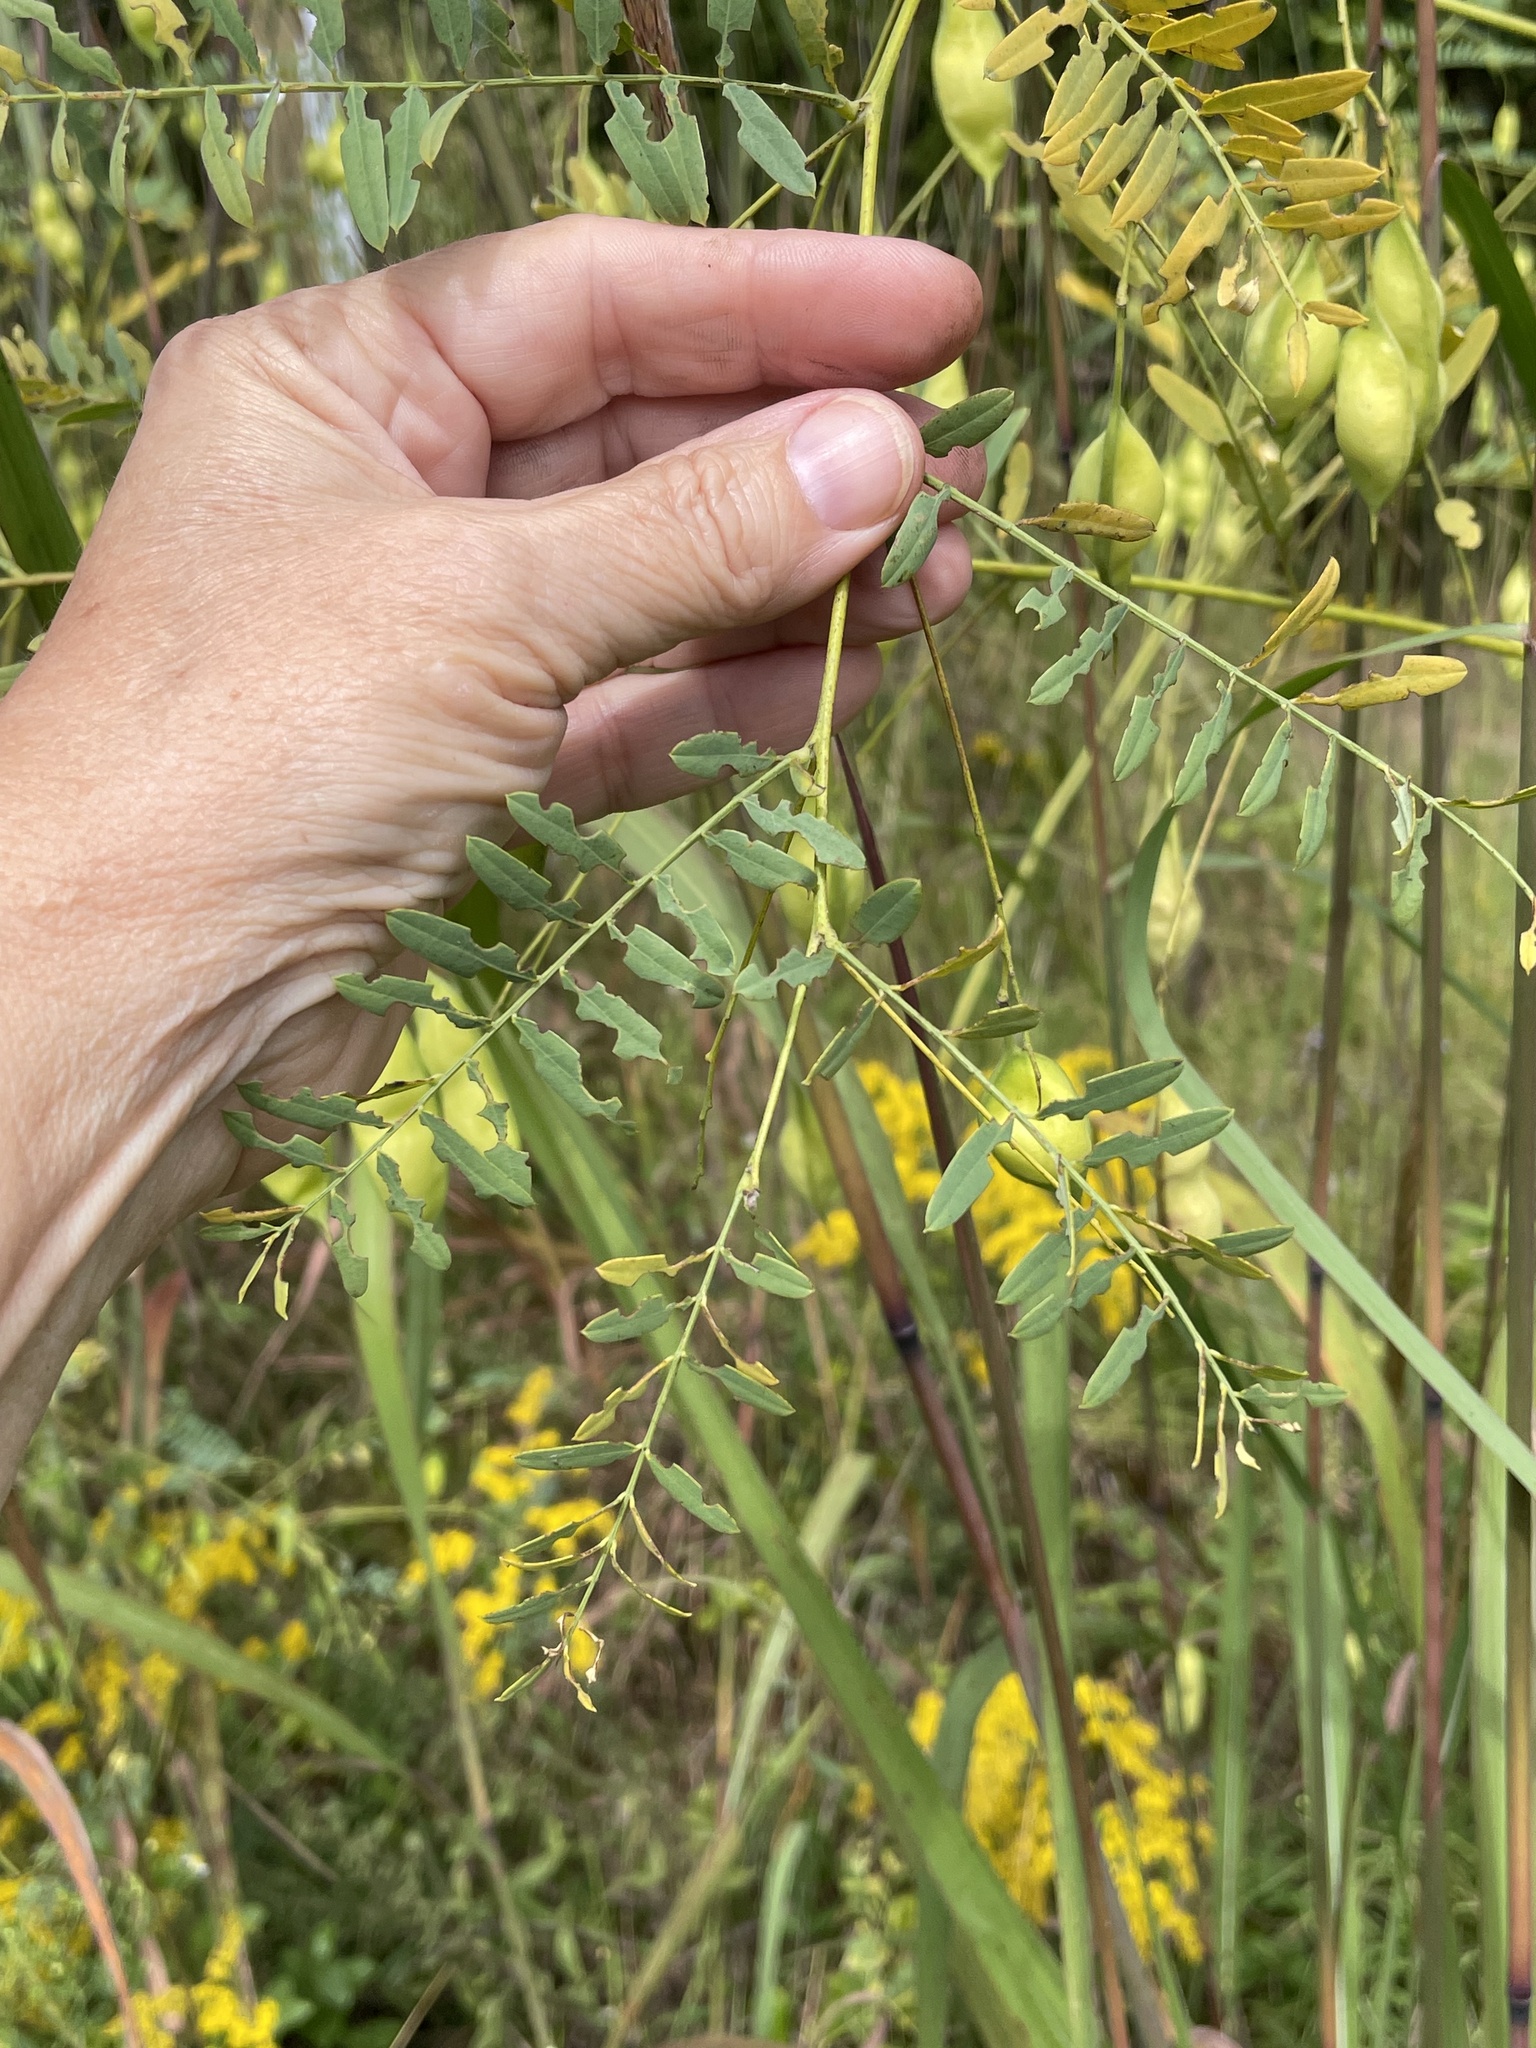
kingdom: Plantae
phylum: Tracheophyta
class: Magnoliopsida
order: Fabales
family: Fabaceae
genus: Sesbania
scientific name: Sesbania vesicaria
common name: Bagpod
